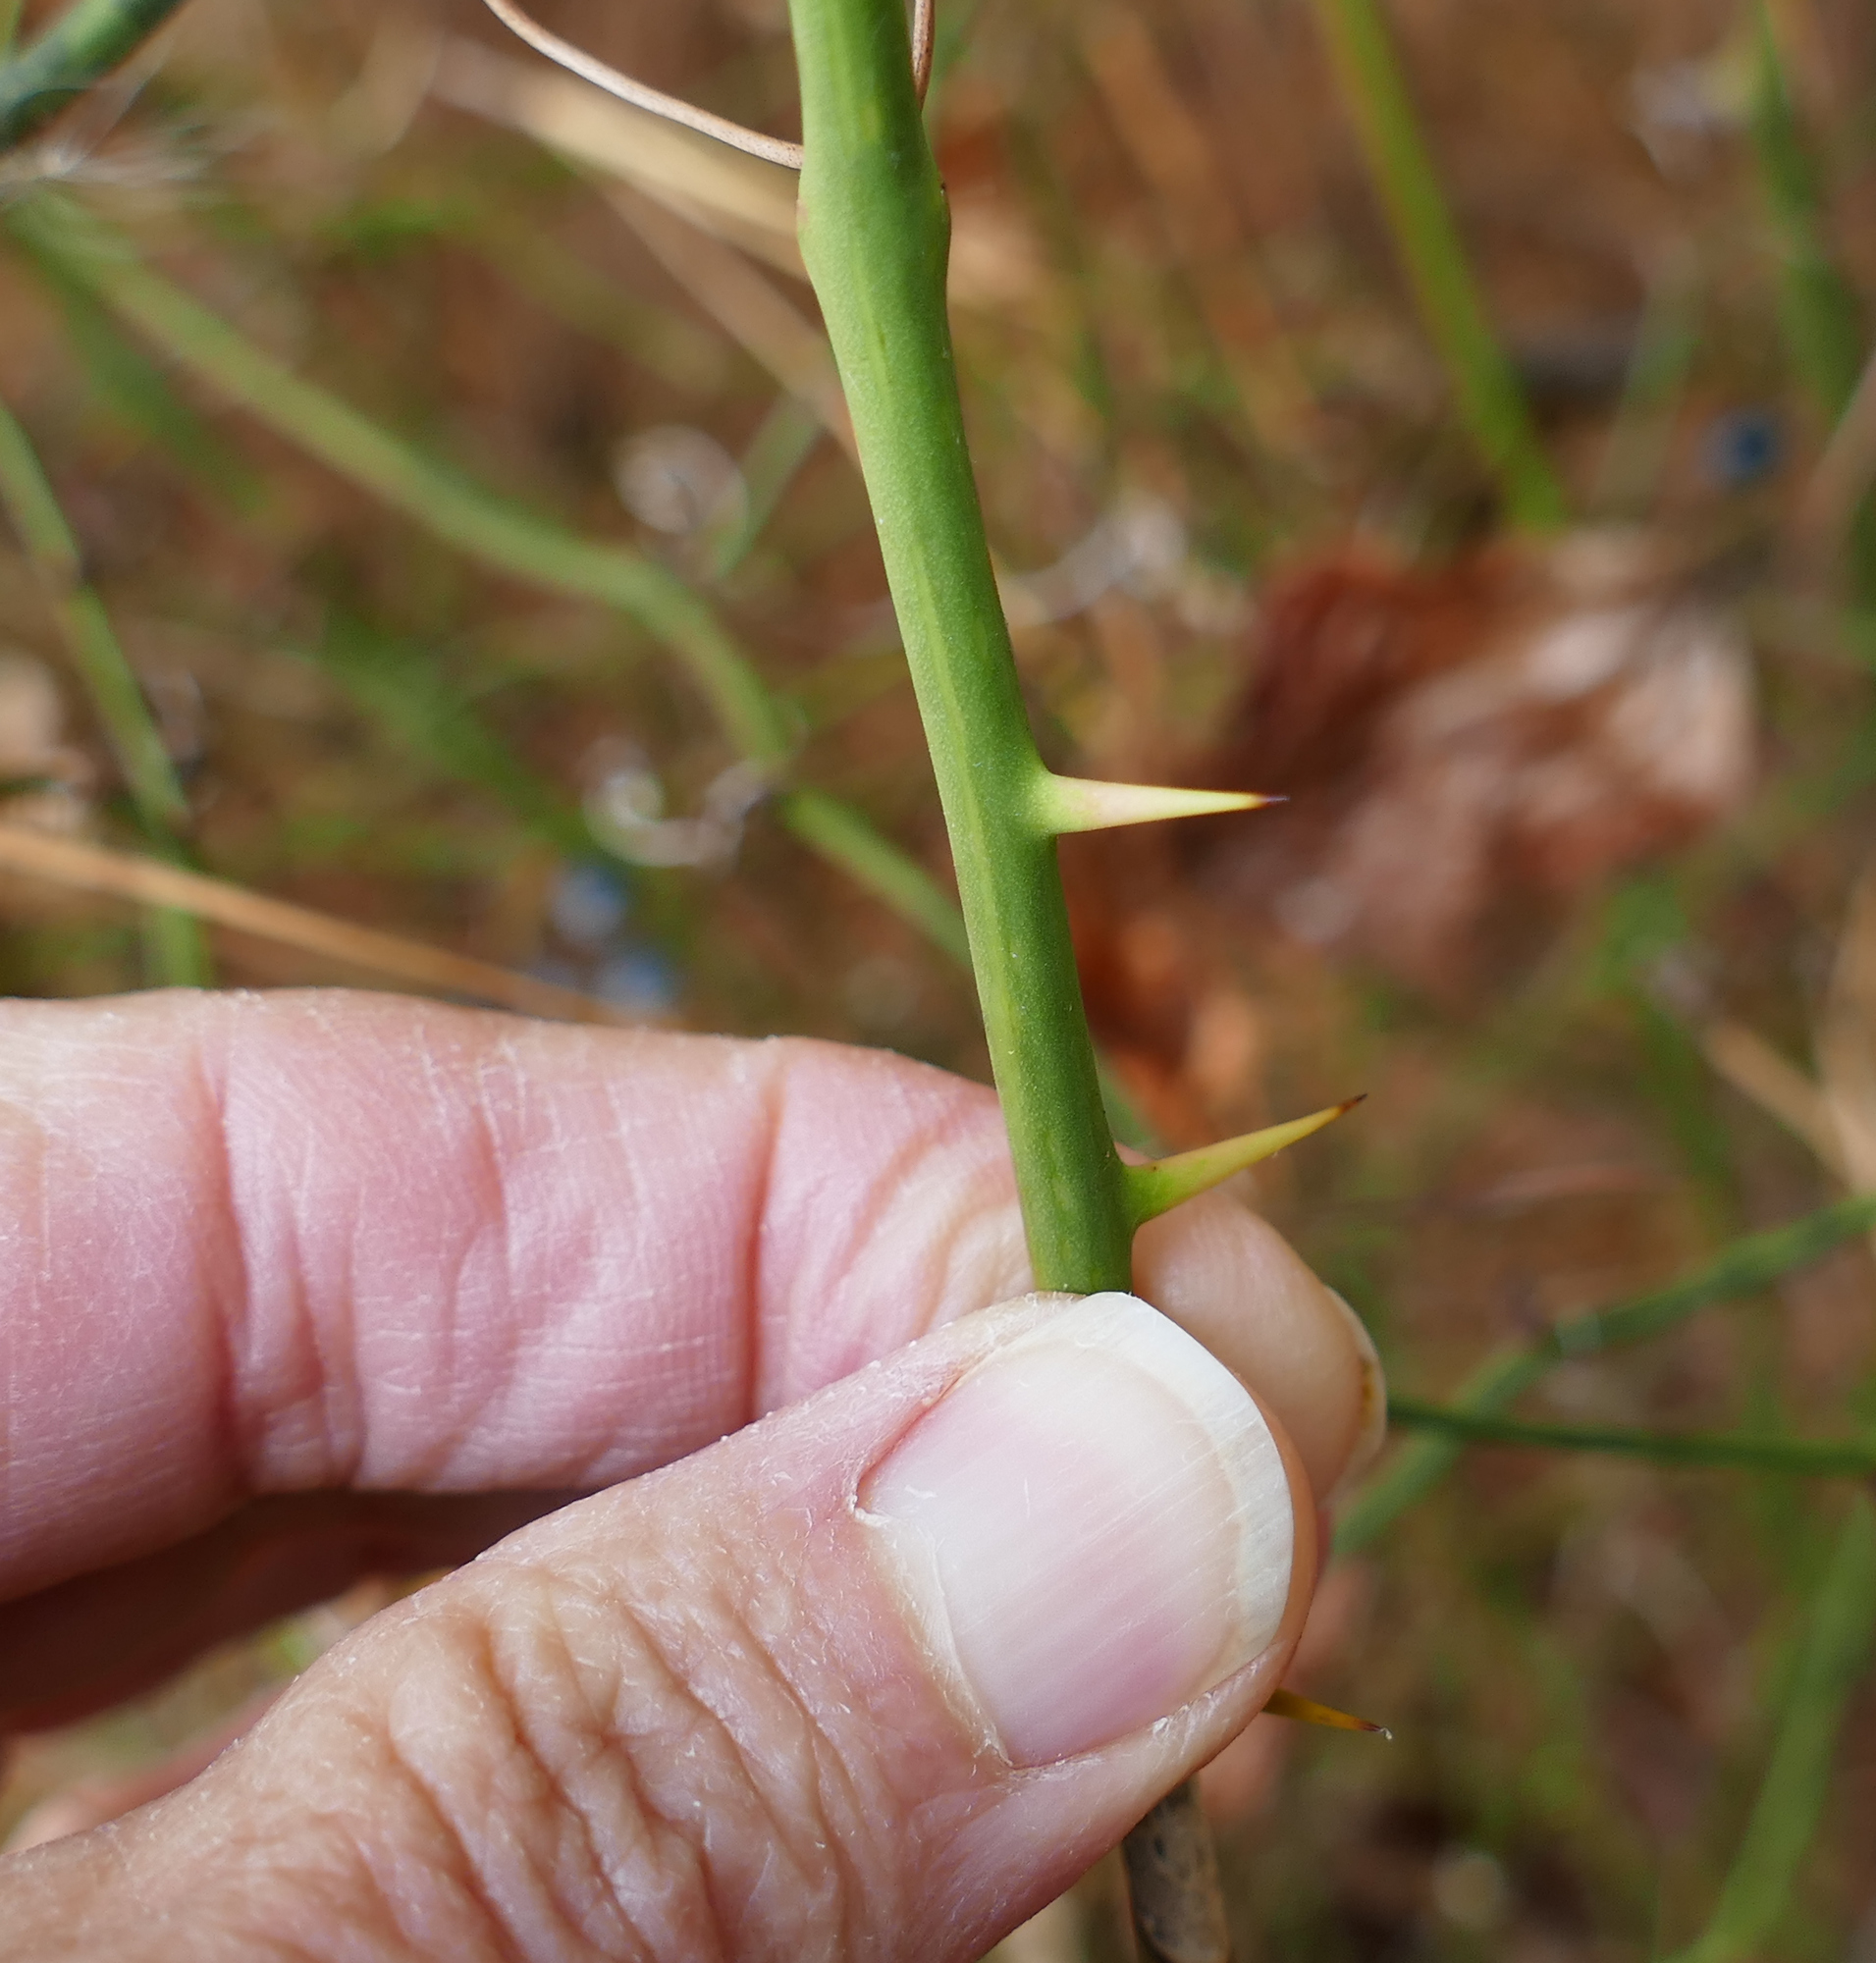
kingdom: Plantae
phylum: Tracheophyta
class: Liliopsida
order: Liliales
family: Smilacaceae
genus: Smilax
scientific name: Smilax rotundifolia
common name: Bullbriar
